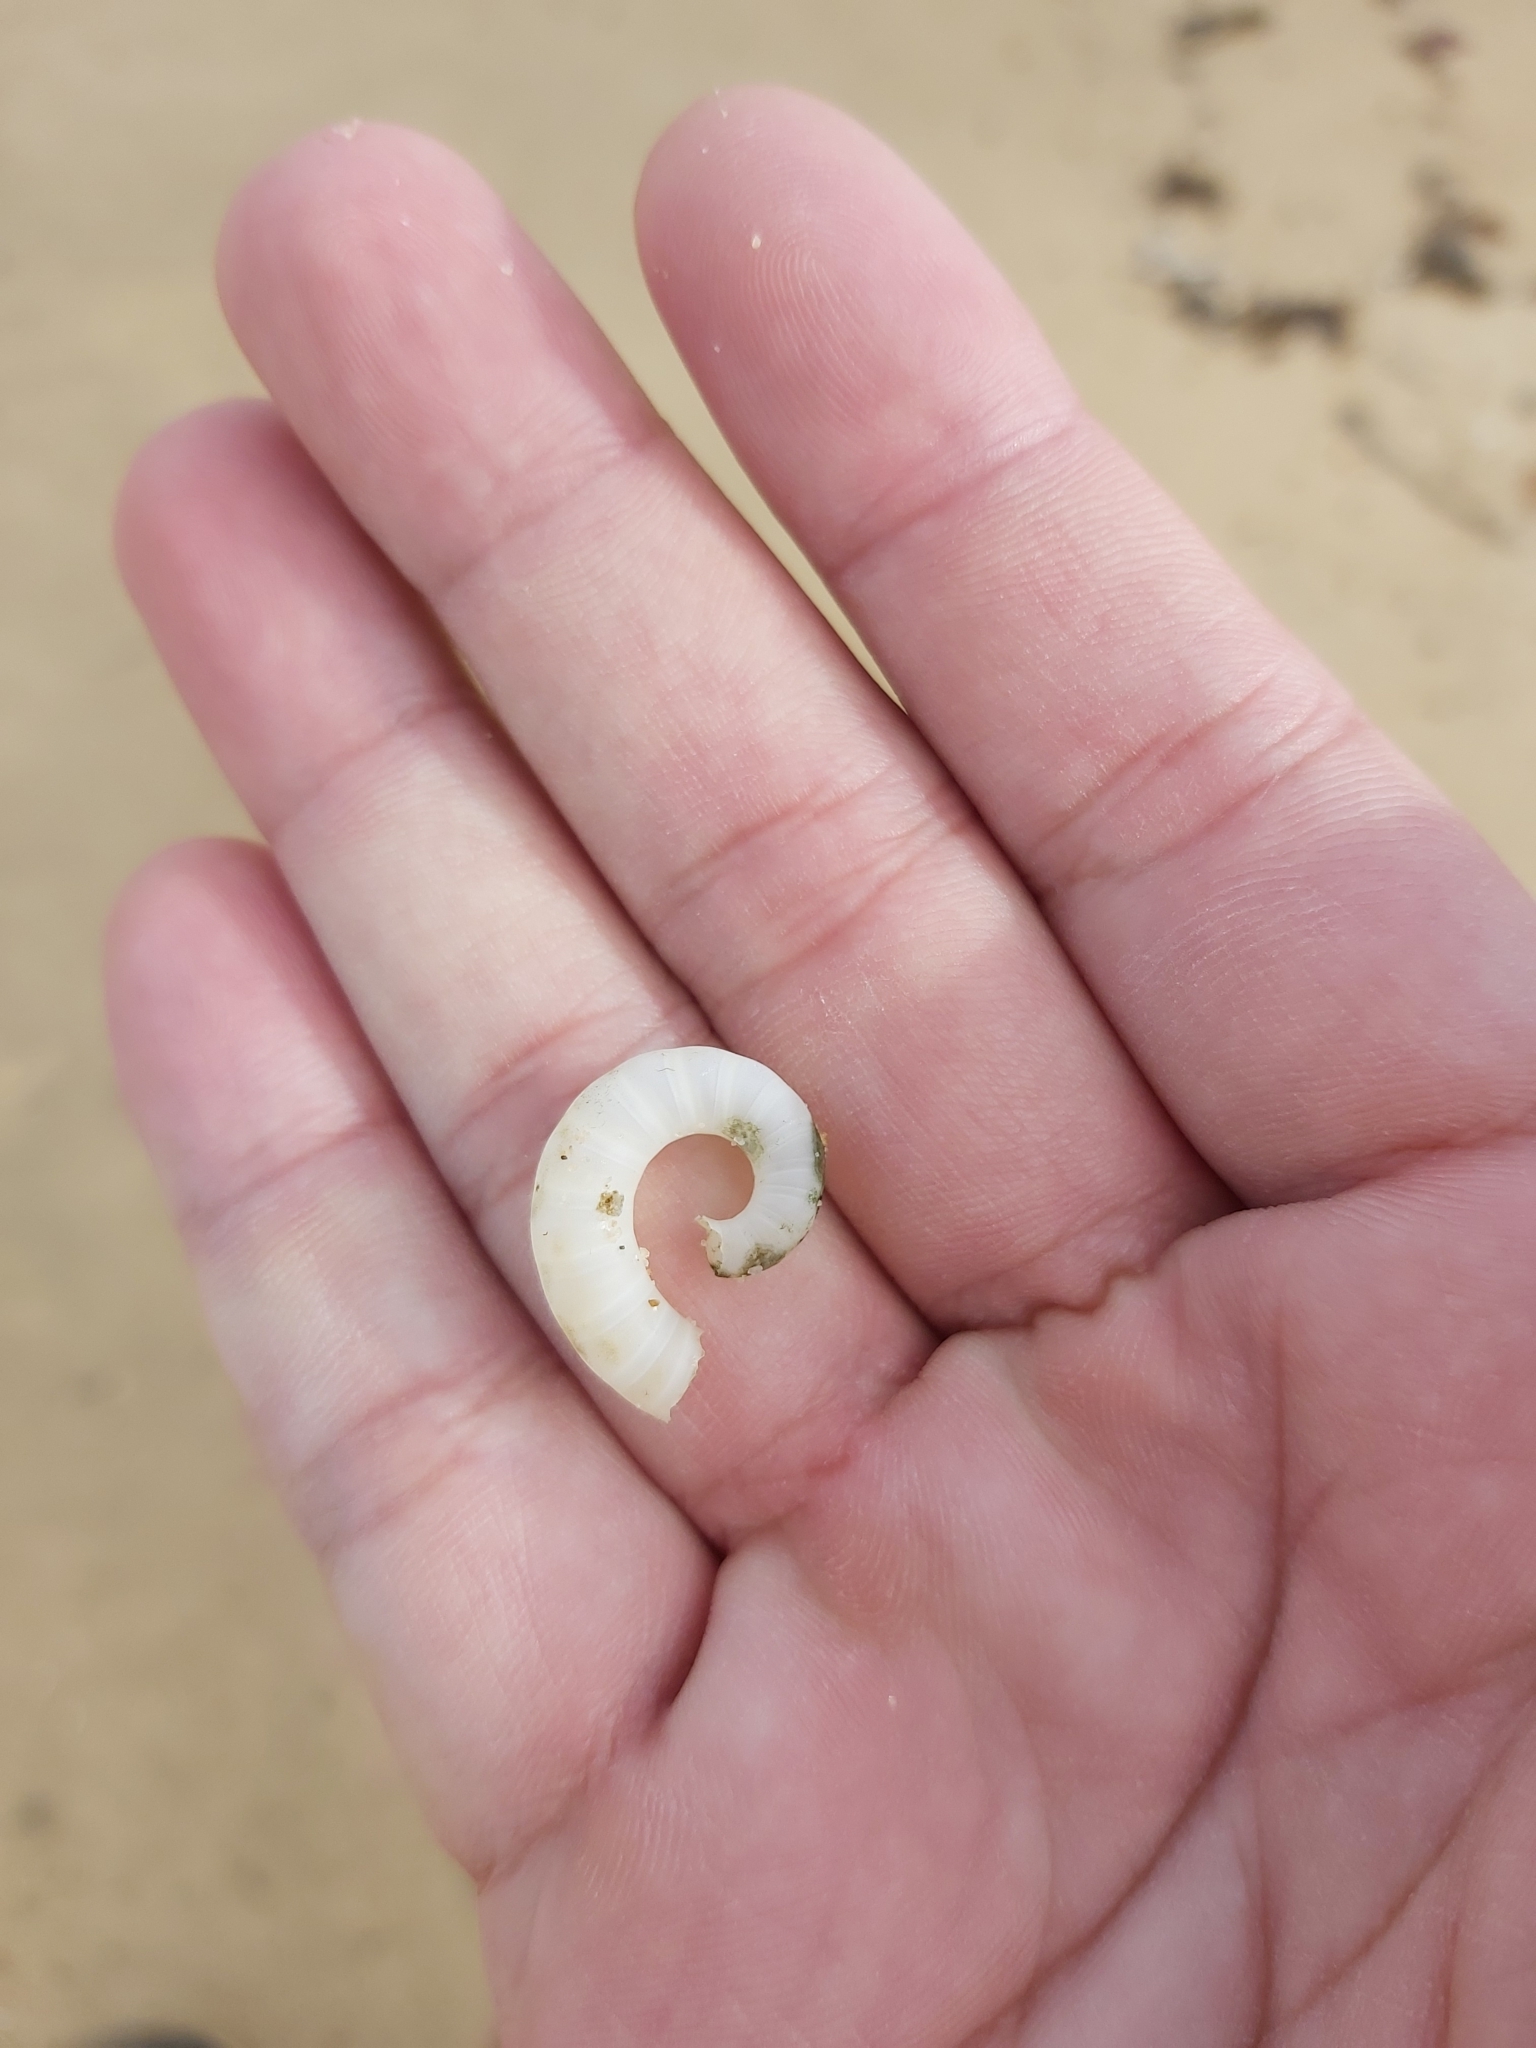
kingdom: Animalia
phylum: Mollusca
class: Cephalopoda
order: Spirulida
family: Spirulidae
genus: Spirula
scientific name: Spirula spirula
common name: Ram's horn squid
